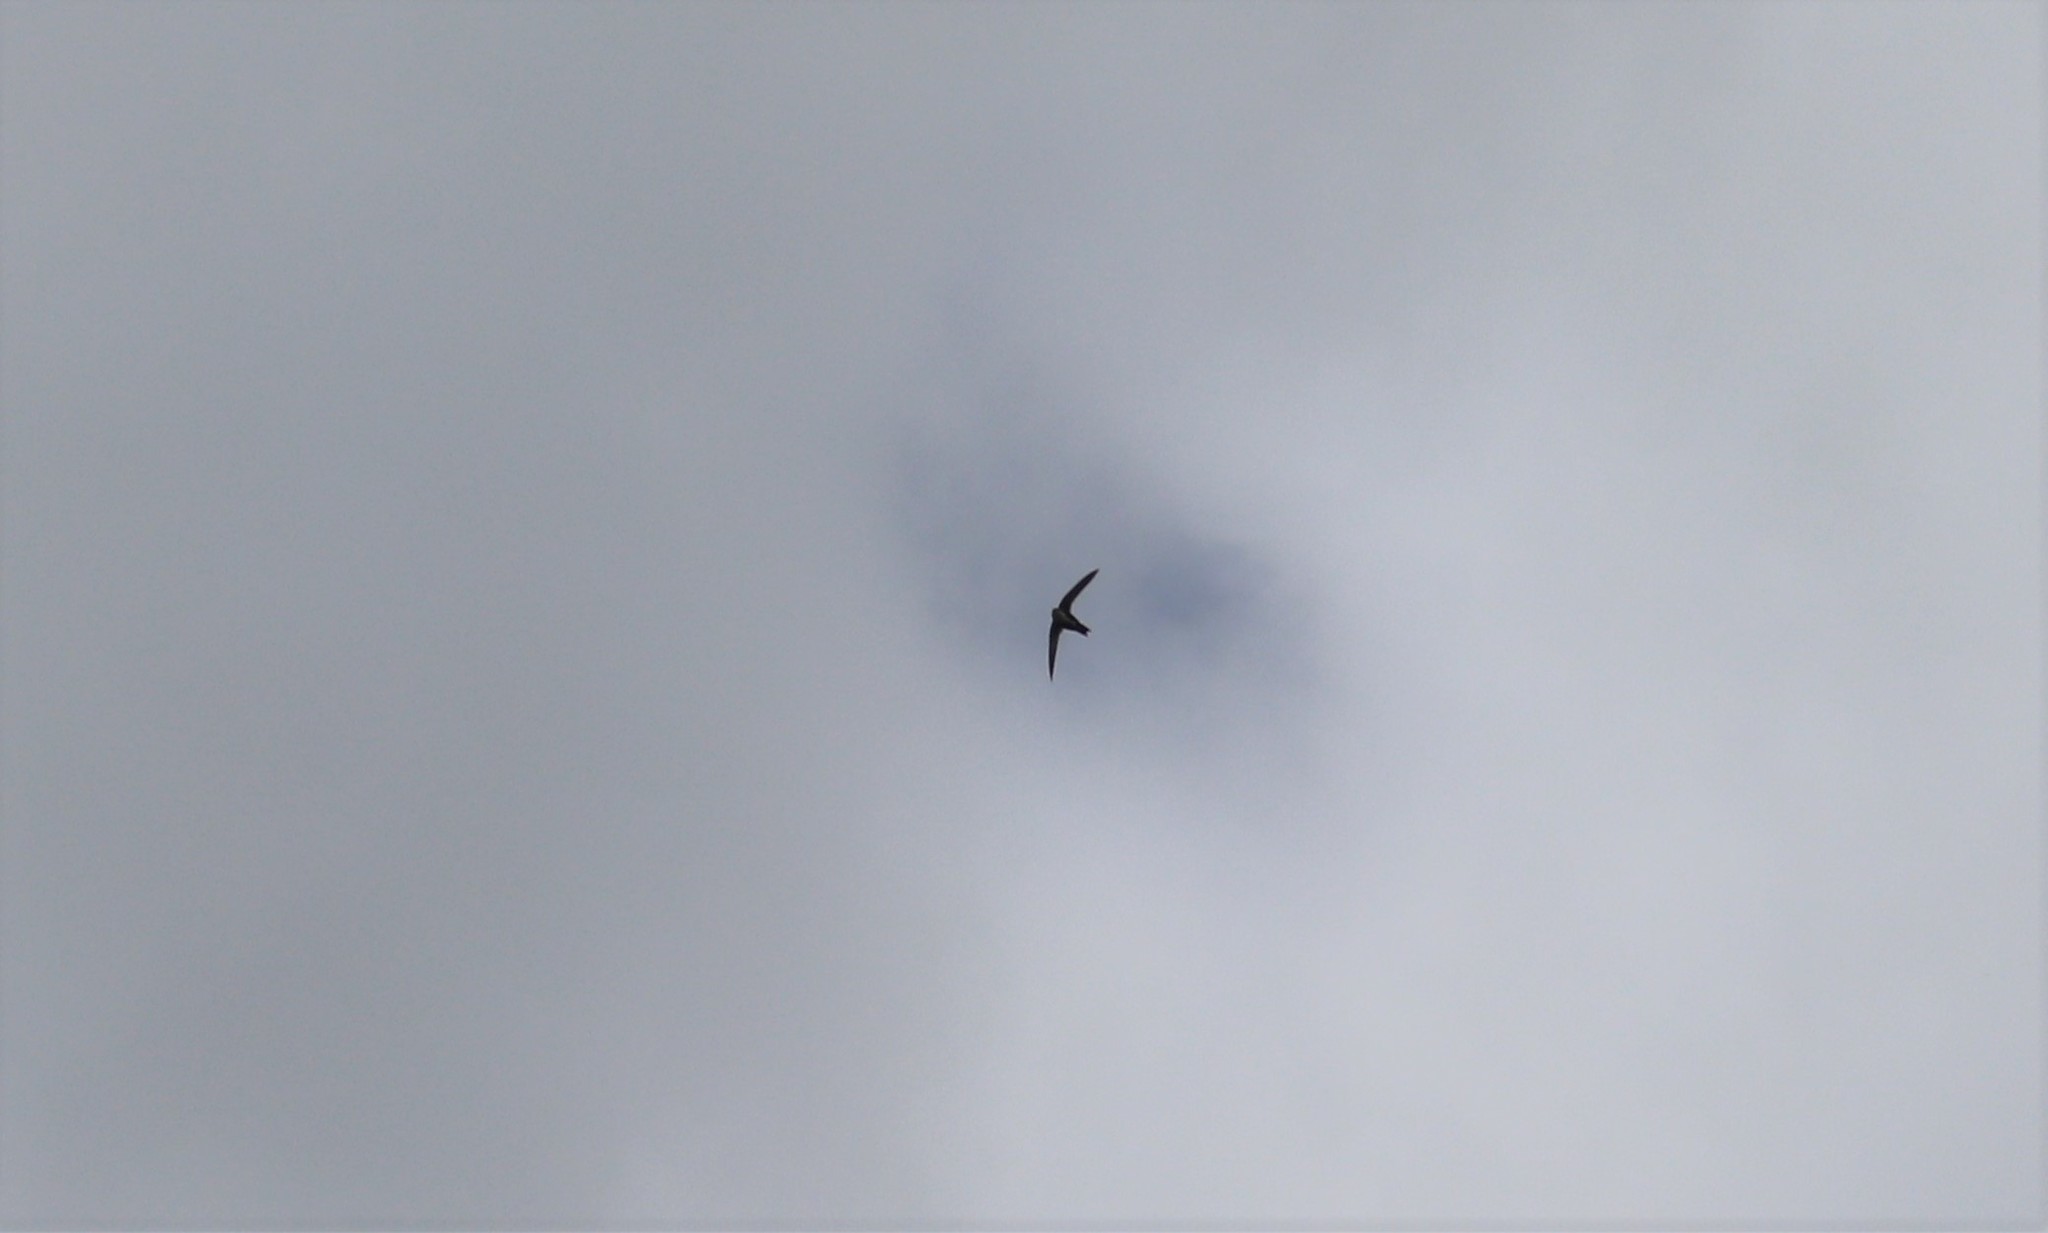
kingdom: Animalia
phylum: Chordata
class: Aves
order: Apodiformes
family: Apodidae
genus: Aeronautes
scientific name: Aeronautes saxatalis
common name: White-throated swift
